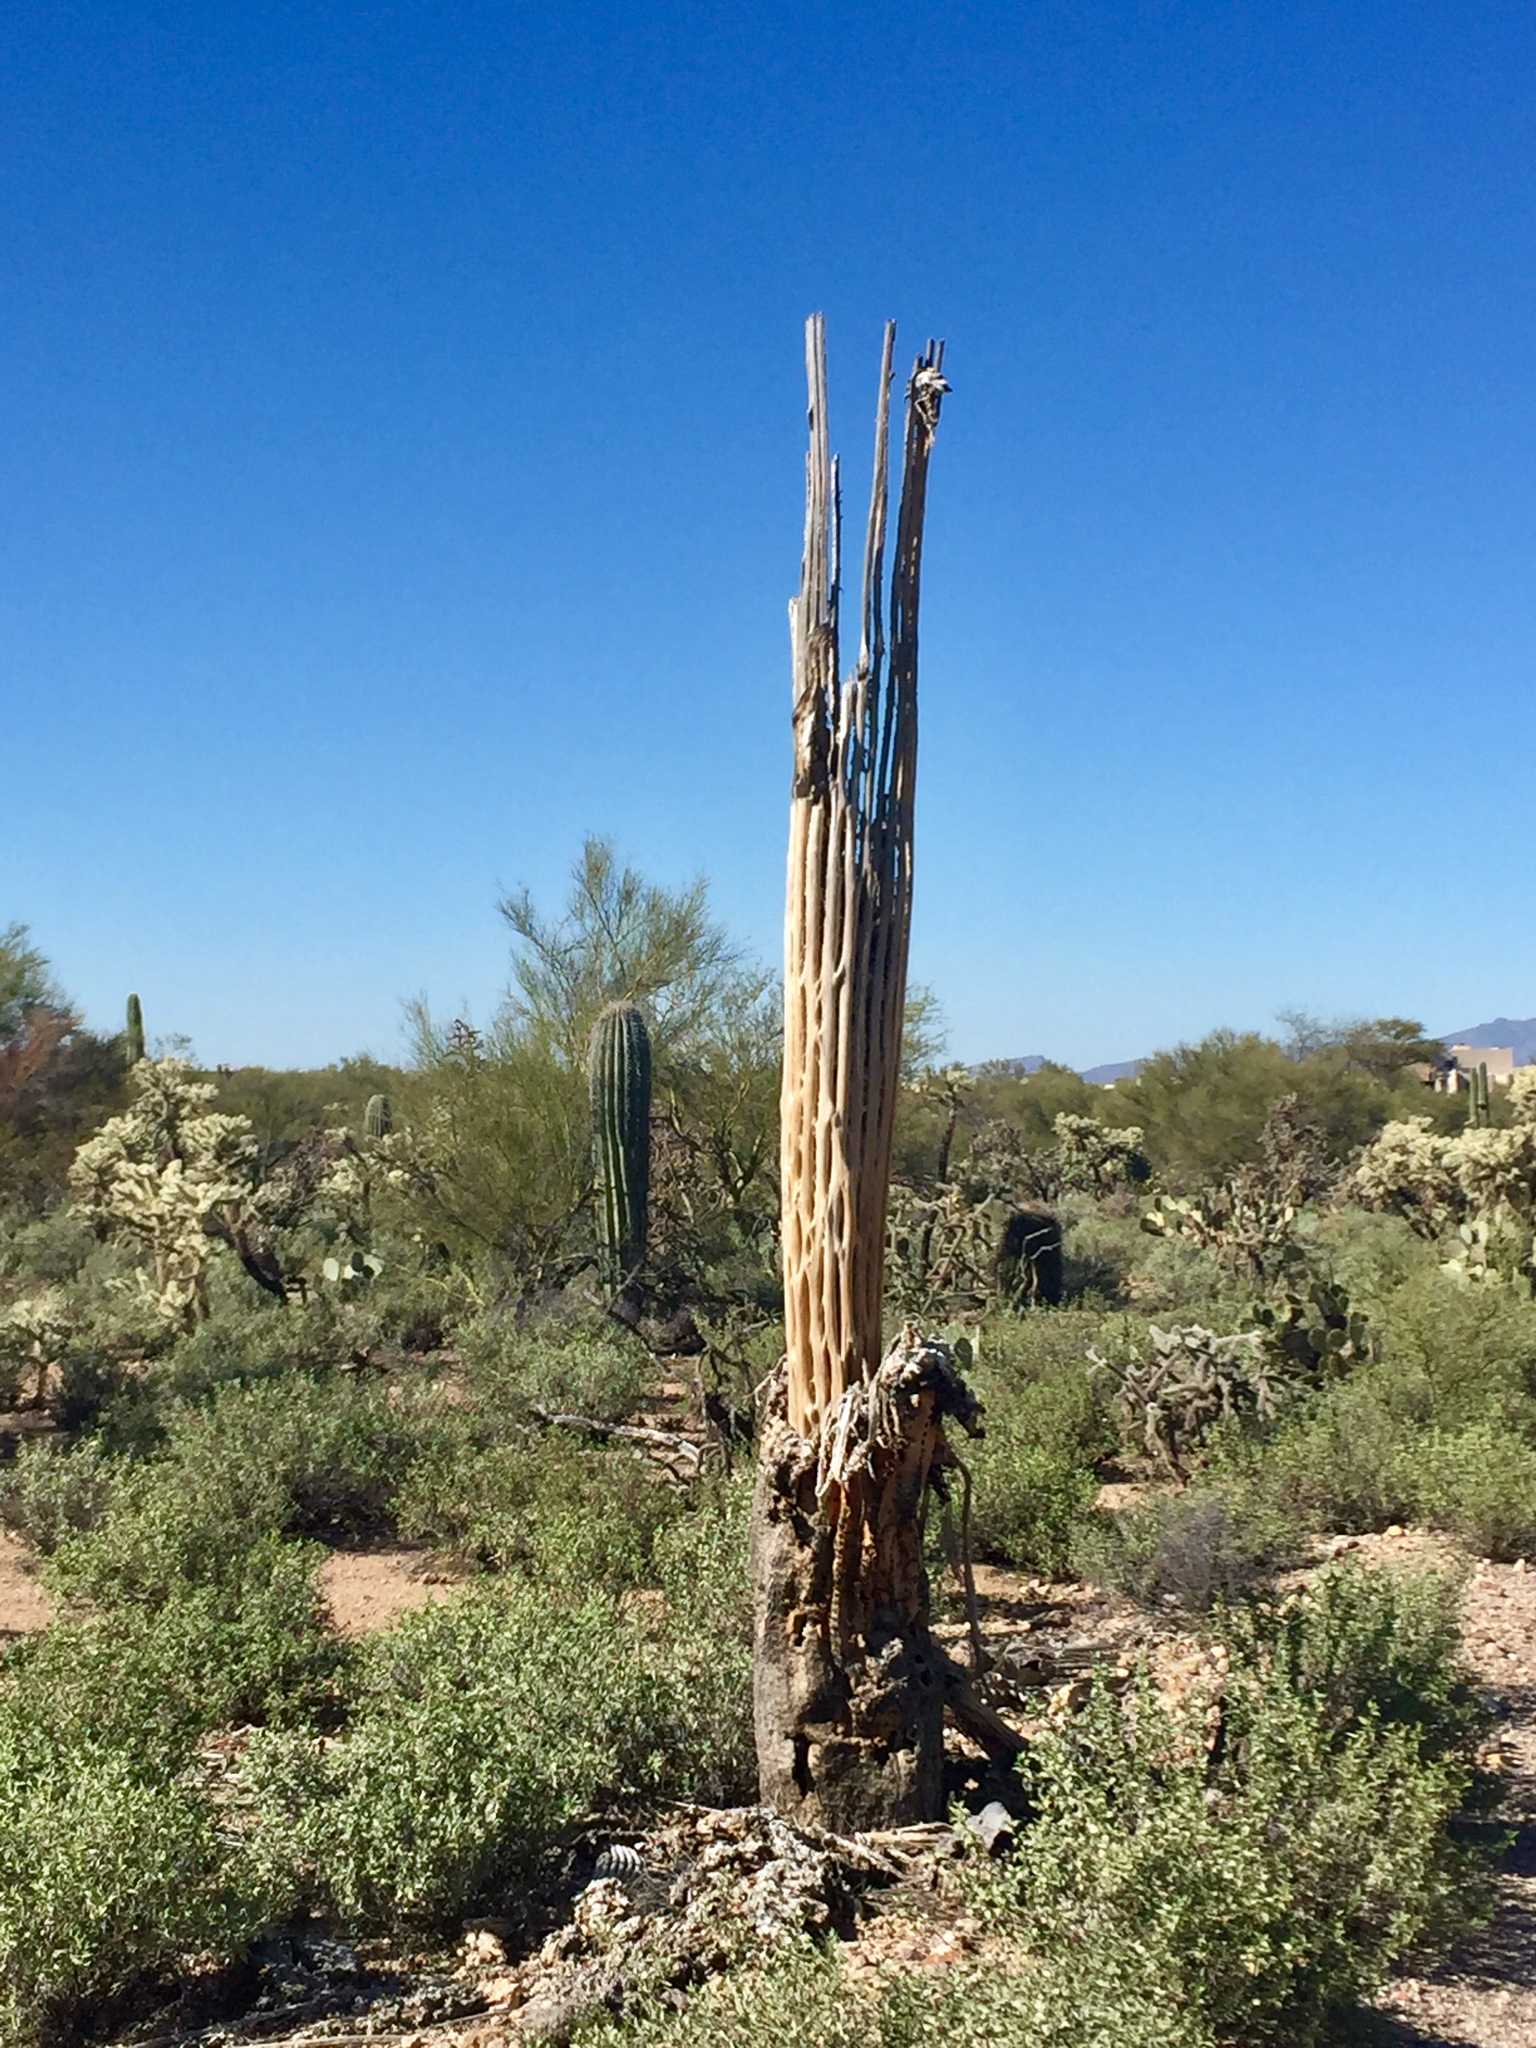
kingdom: Plantae
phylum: Tracheophyta
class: Magnoliopsida
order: Caryophyllales
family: Cactaceae
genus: Carnegiea
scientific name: Carnegiea gigantea
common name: Saguaro
